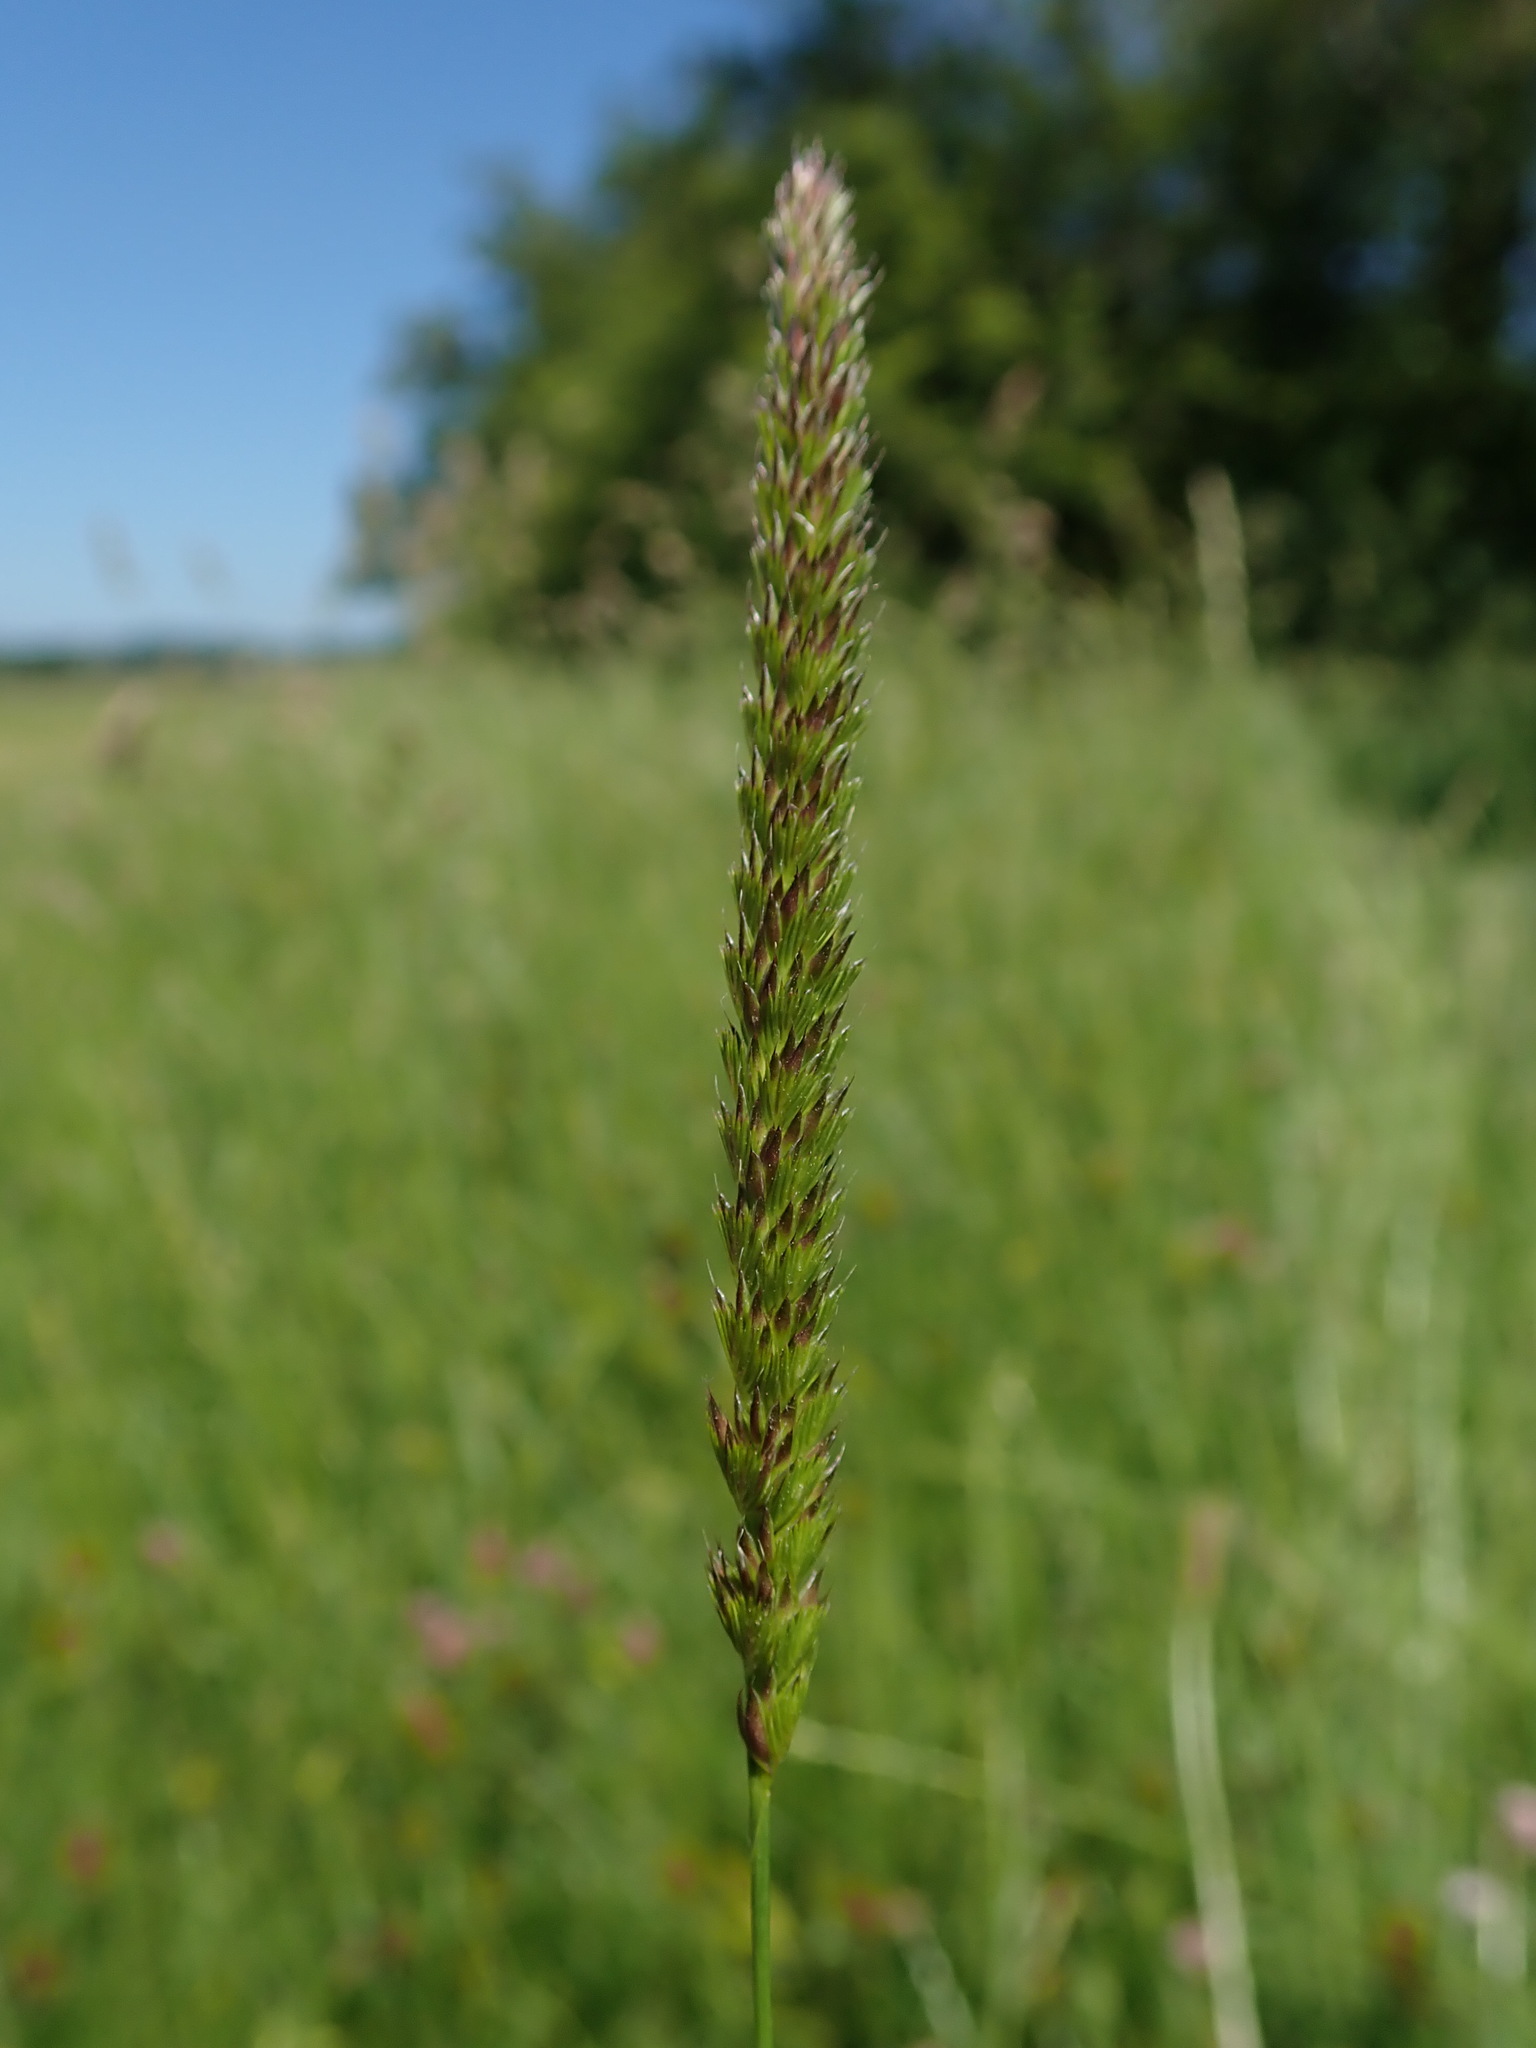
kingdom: Plantae
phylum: Tracheophyta
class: Liliopsida
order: Poales
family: Poaceae
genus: Cynosurus
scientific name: Cynosurus cristatus
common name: Crested dog's-tail
